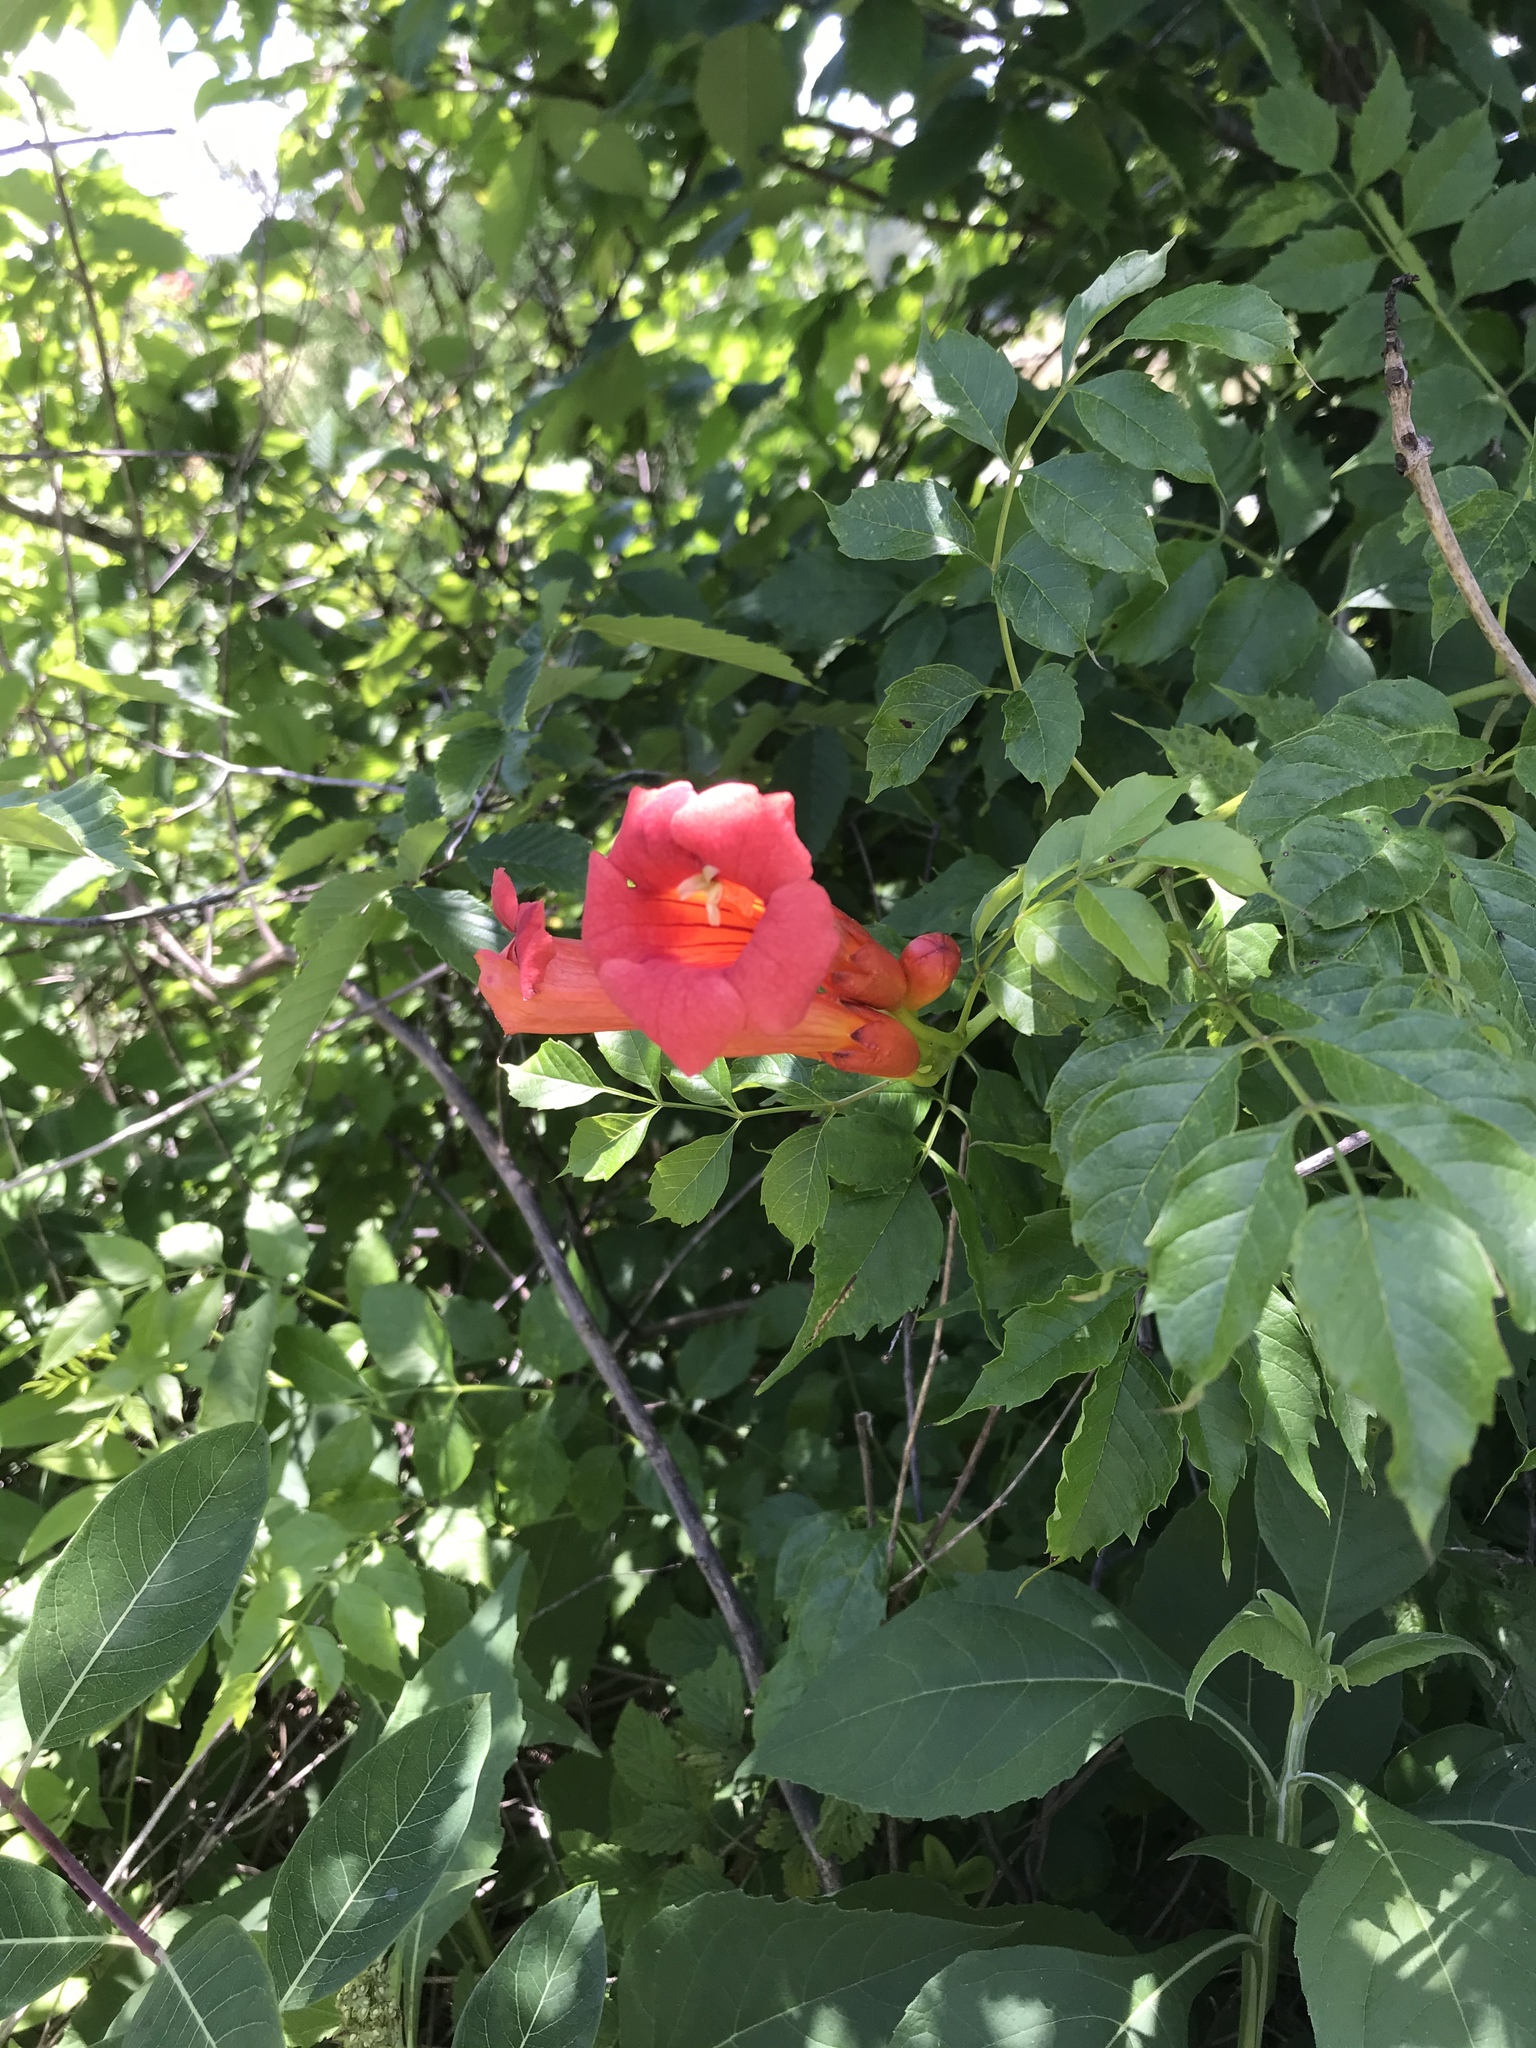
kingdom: Plantae
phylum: Tracheophyta
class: Magnoliopsida
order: Lamiales
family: Bignoniaceae
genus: Campsis
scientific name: Campsis radicans
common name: Trumpet-creeper
